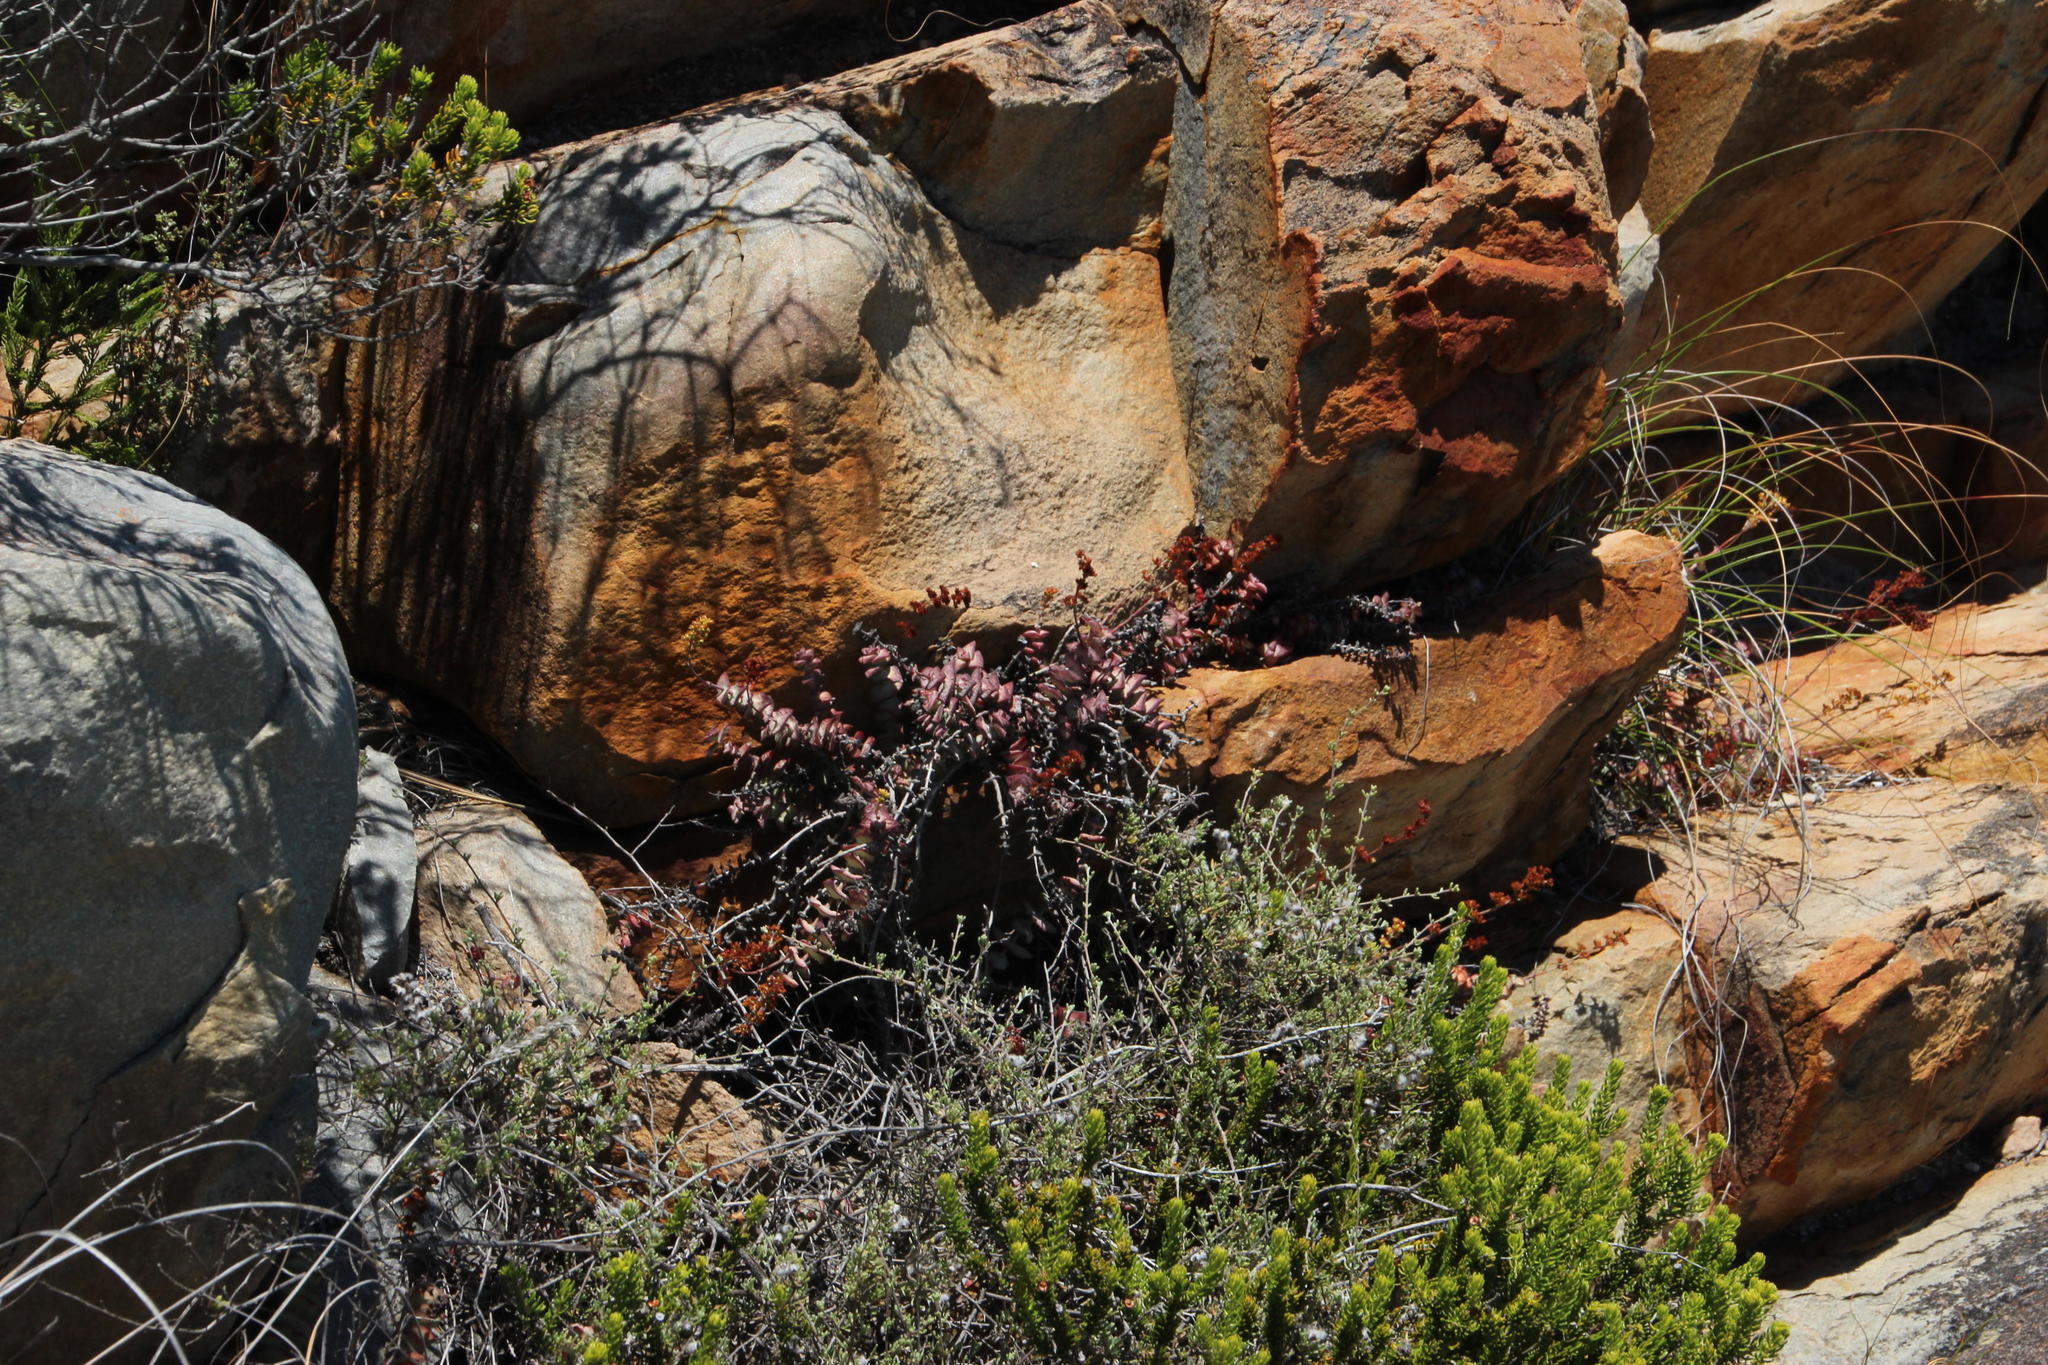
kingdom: Plantae
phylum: Tracheophyta
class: Magnoliopsida
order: Saxifragales
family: Crassulaceae
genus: Crassula
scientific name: Crassula perforata
